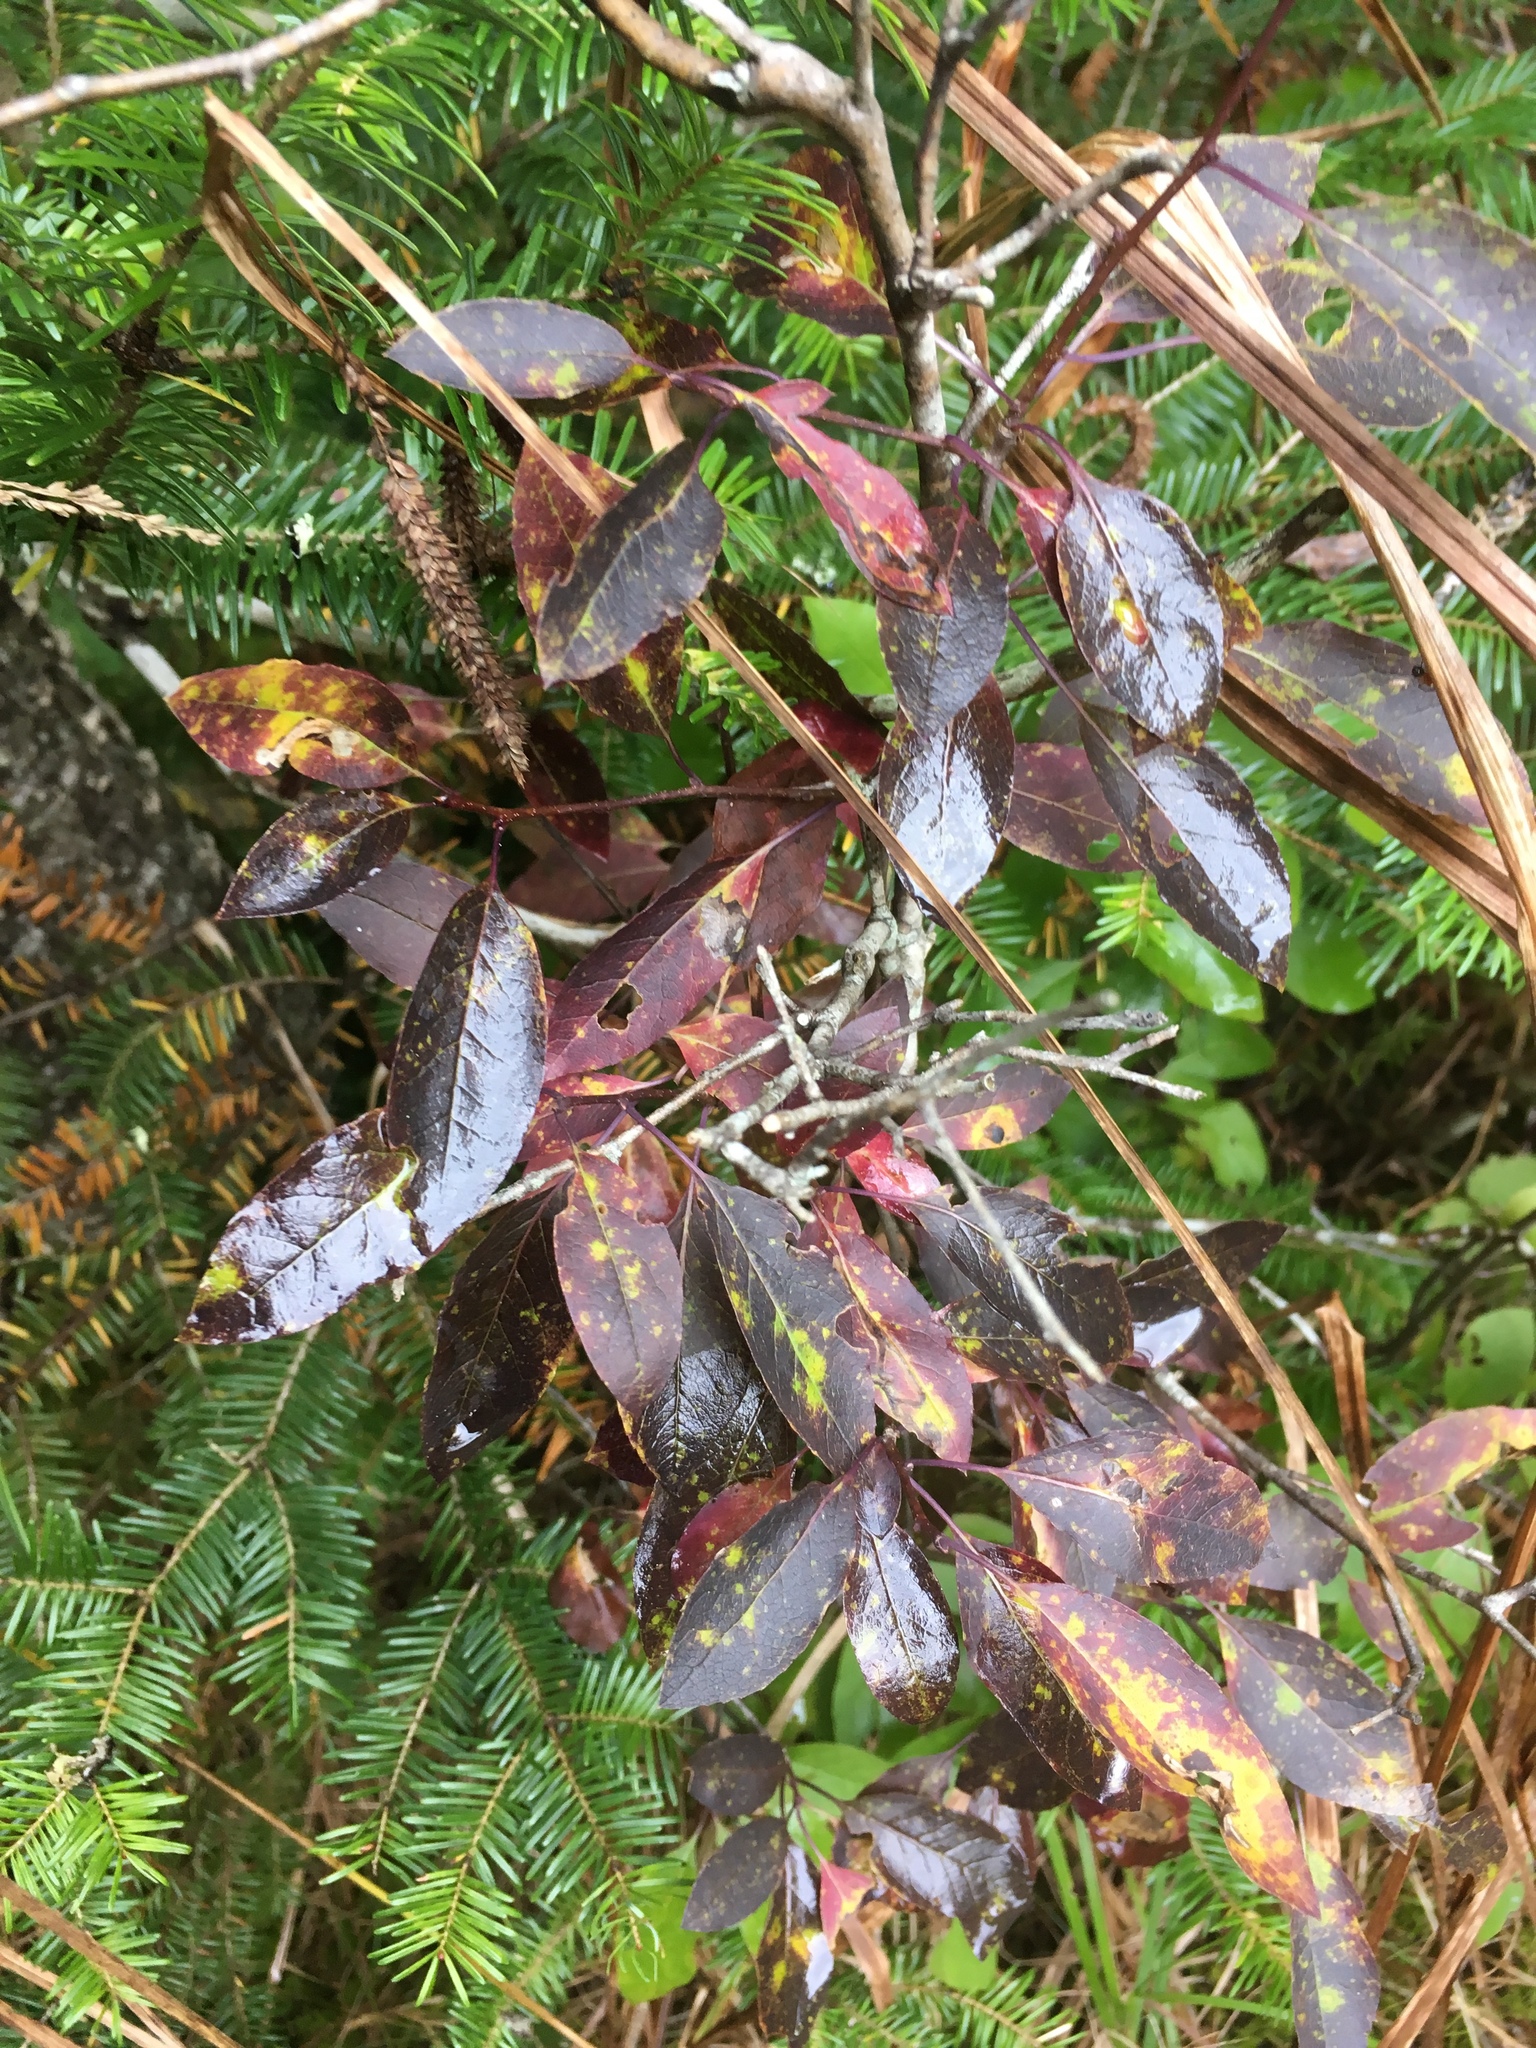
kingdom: Plantae
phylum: Tracheophyta
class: Magnoliopsida
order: Aquifoliales
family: Aquifoliaceae
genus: Ilex
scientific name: Ilex mucronata
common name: Catberry
